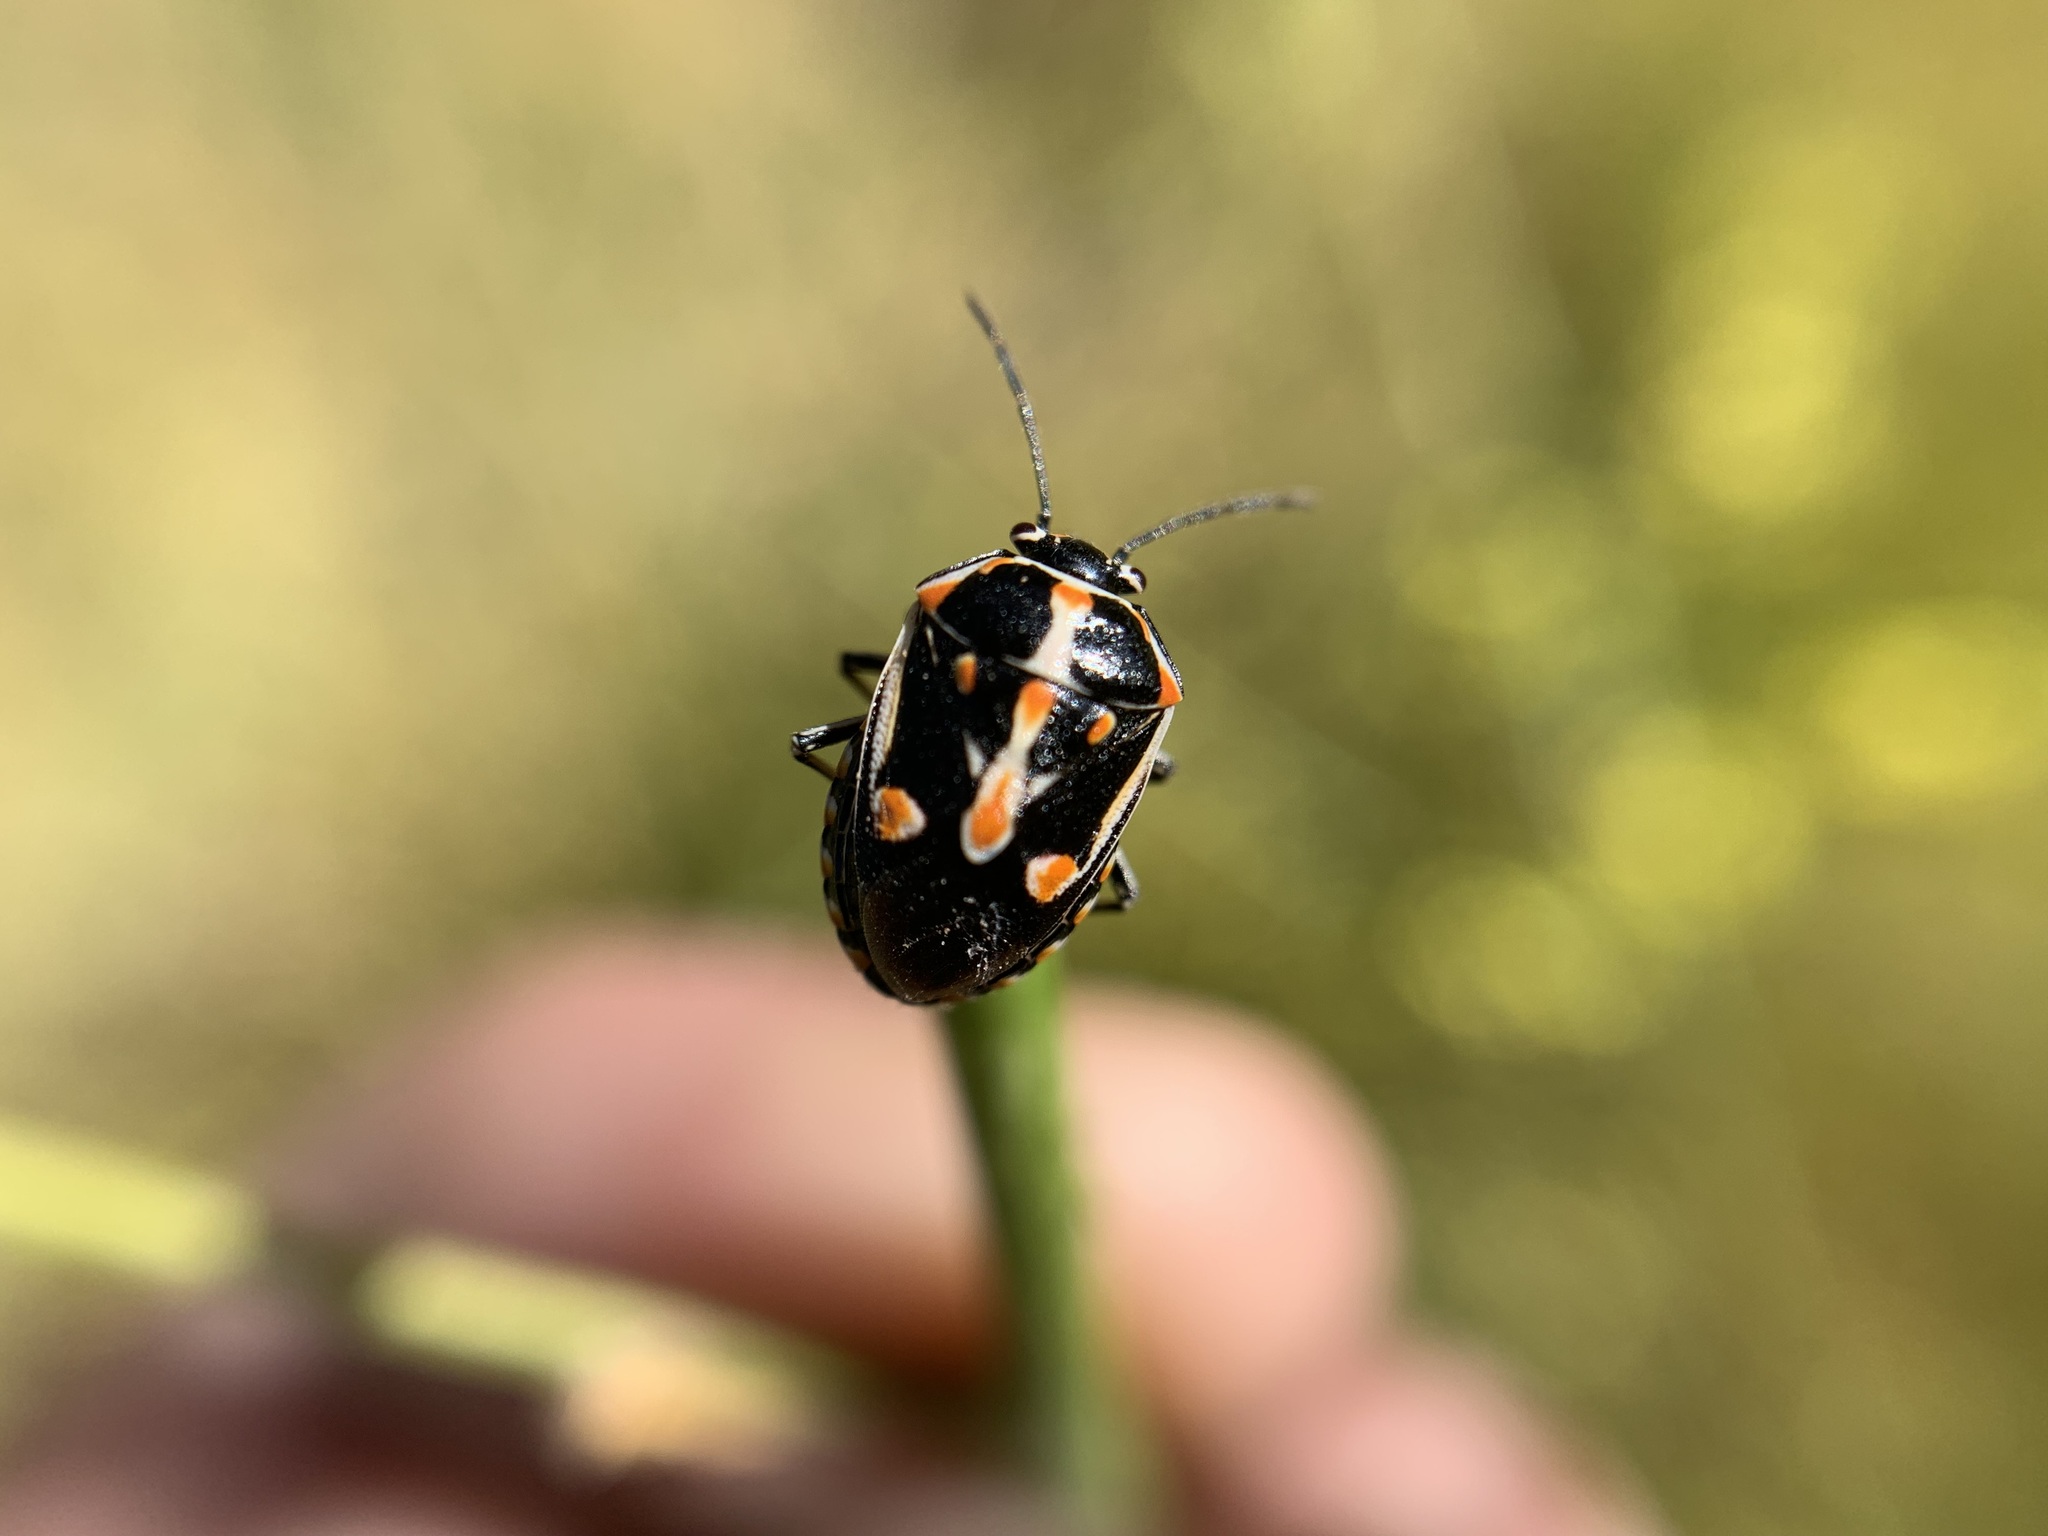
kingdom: Animalia
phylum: Arthropoda
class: Insecta
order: Hemiptera
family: Pentatomidae
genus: Bagrada
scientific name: Bagrada hilaris
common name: Bagrada bug
